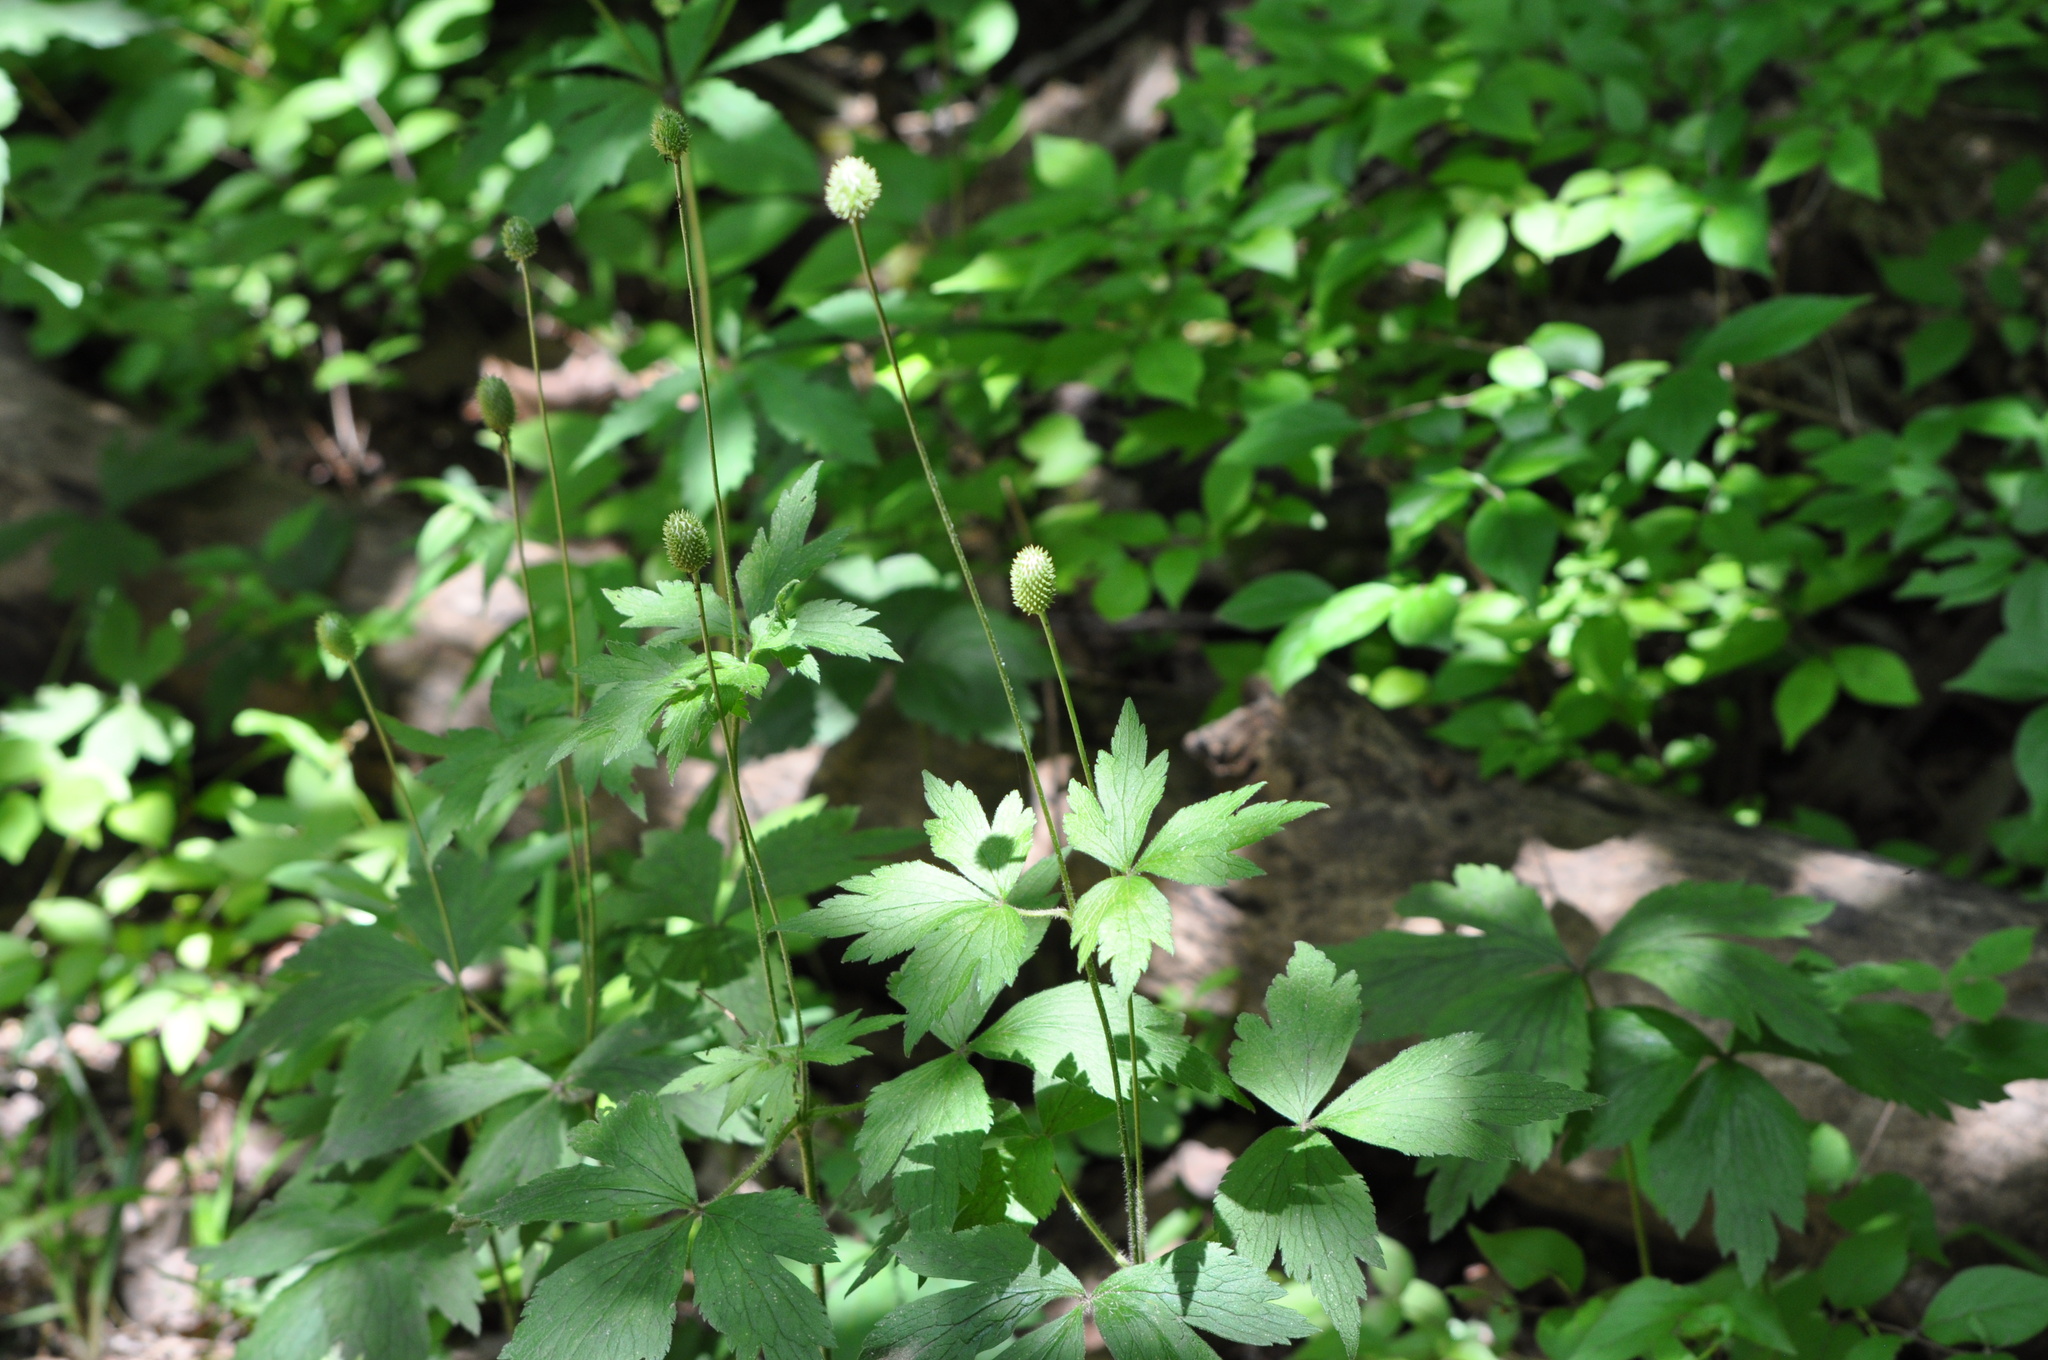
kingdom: Plantae
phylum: Tracheophyta
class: Magnoliopsida
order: Ranunculales
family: Ranunculaceae
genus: Anemone
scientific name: Anemone virginiana
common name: Tall anemone
